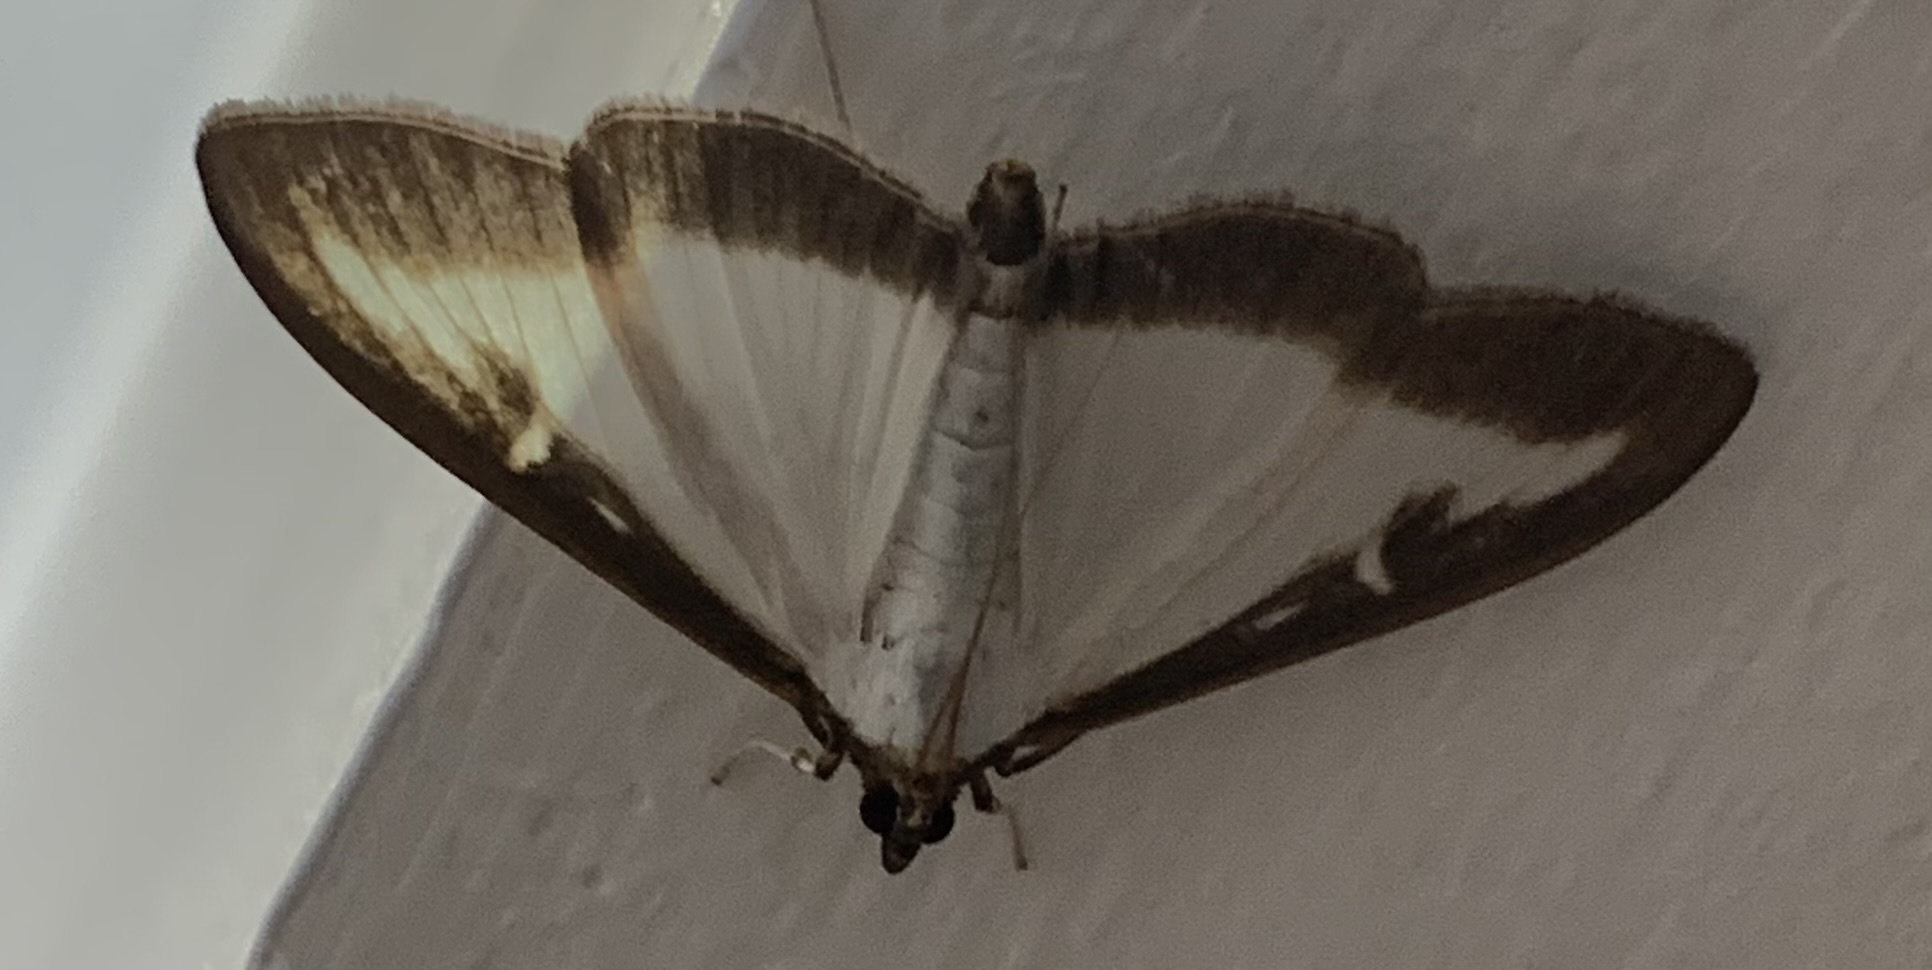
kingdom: Animalia
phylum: Arthropoda
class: Insecta
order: Lepidoptera
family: Crambidae
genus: Cydalima
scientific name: Cydalima perspectalis
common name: Box tree moth
